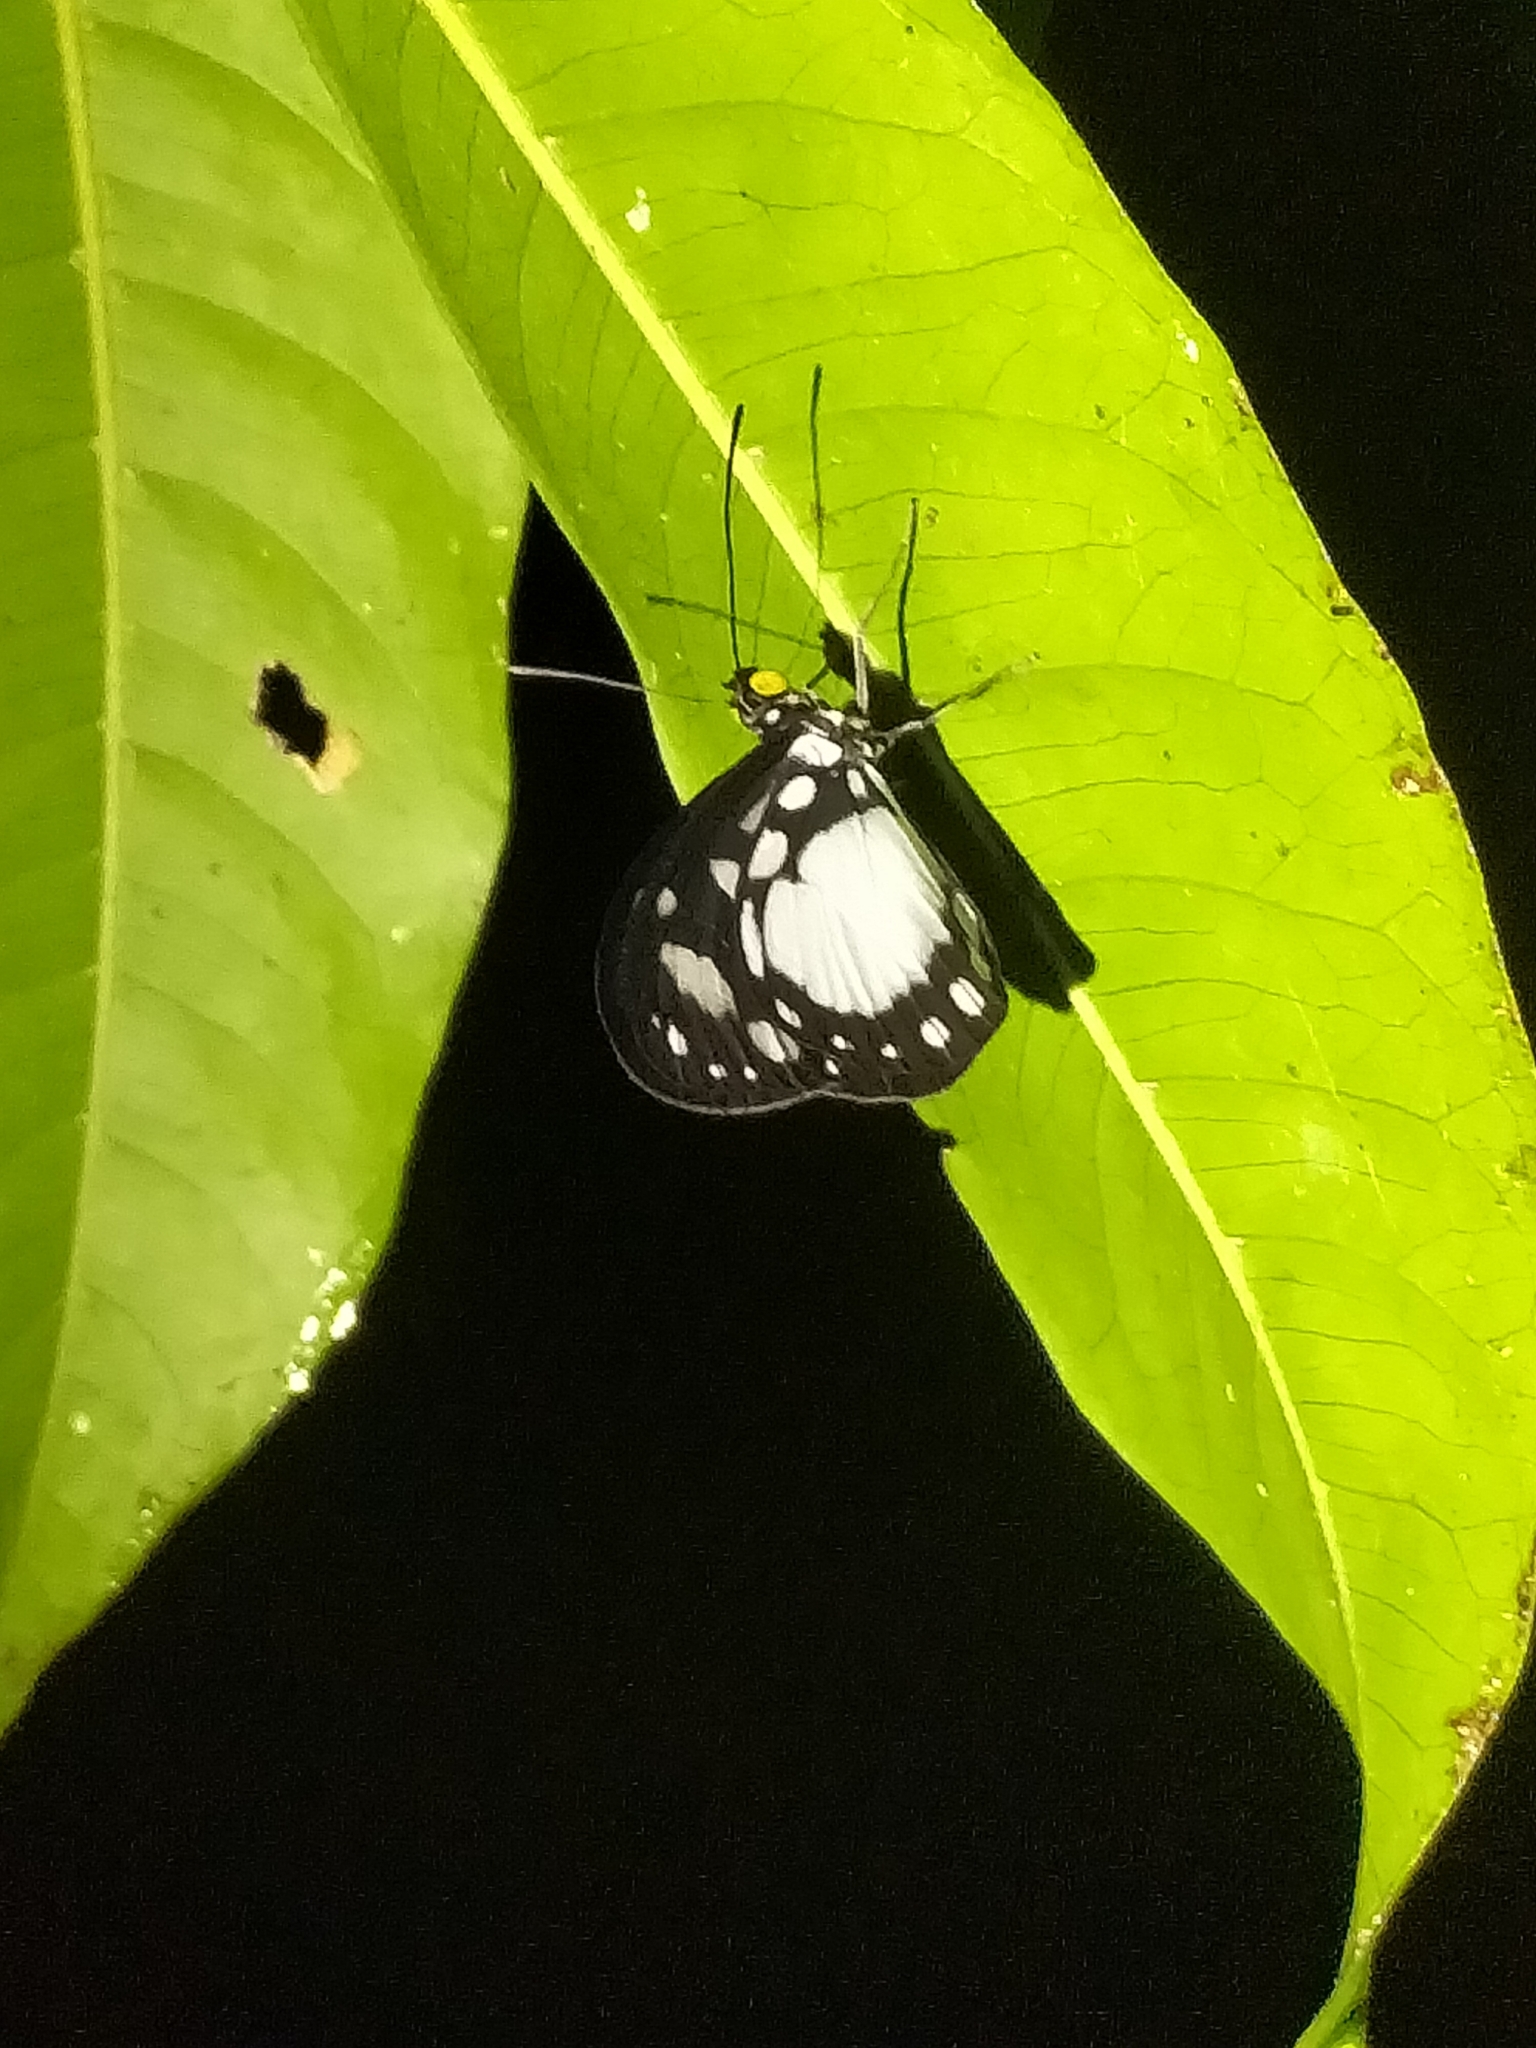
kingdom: Animalia
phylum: Arthropoda
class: Insecta
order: Lepidoptera
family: Nymphalidae
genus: Tellervo
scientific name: Tellervo zoilus
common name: Hamadryad
